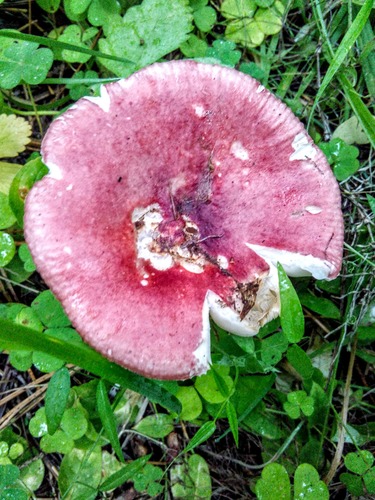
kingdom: Fungi
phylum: Basidiomycota
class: Agaricomycetes
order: Russulales
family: Russulaceae
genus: Russula
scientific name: Russula sanguinea
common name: Bloody brittlegill
